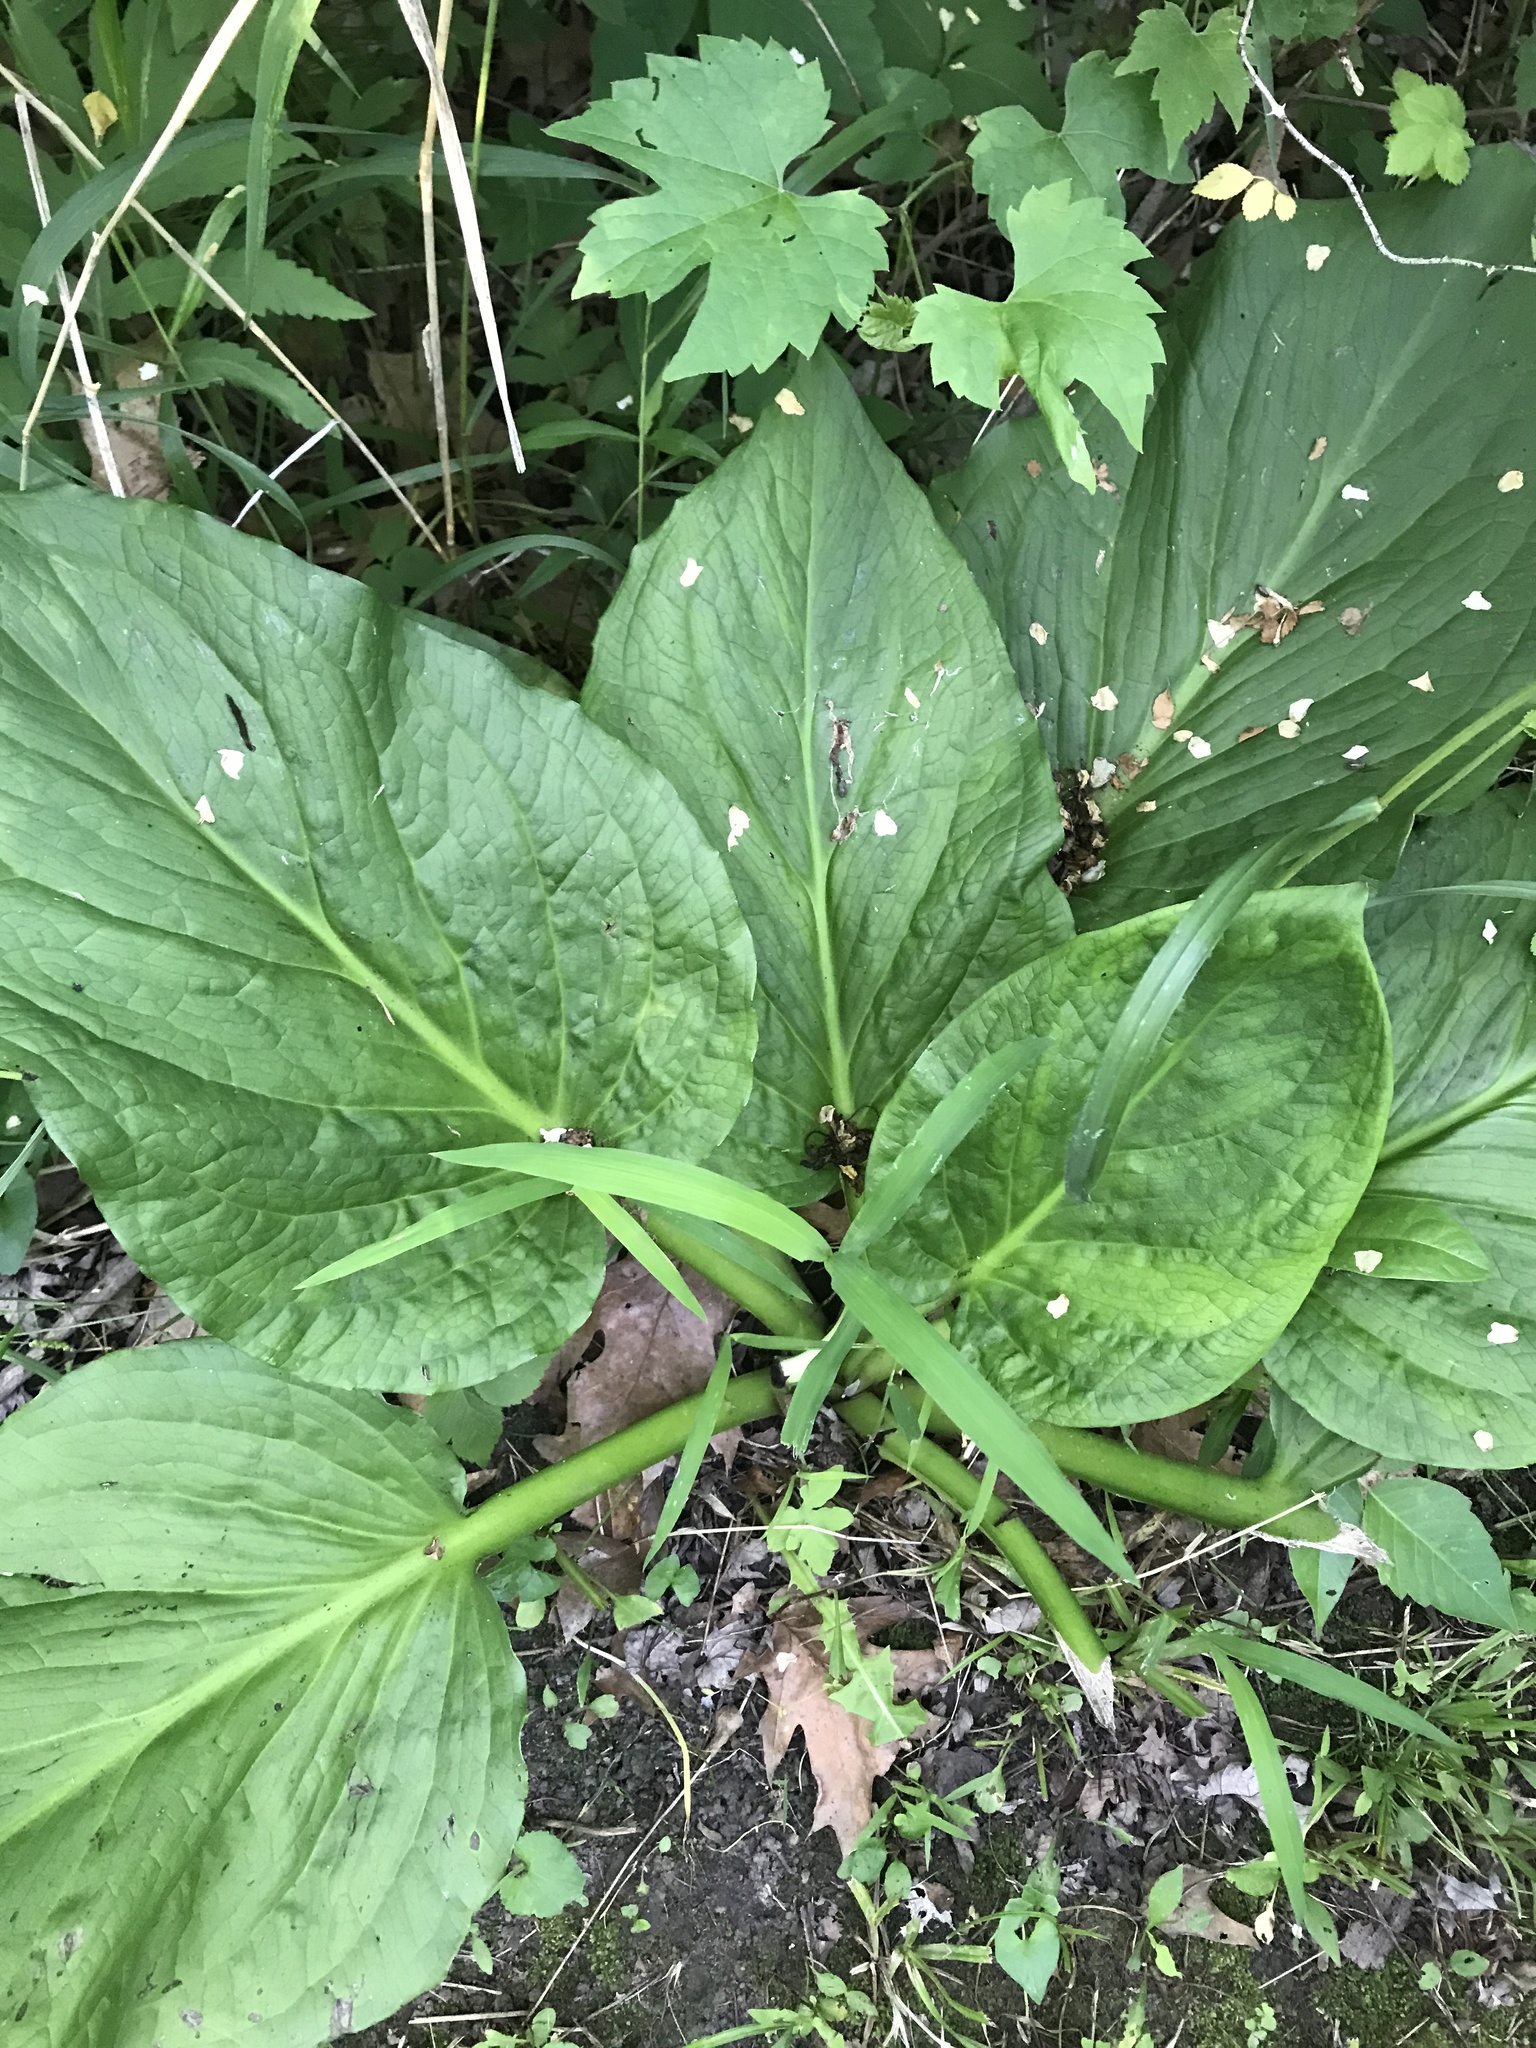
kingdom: Plantae
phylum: Tracheophyta
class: Liliopsida
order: Alismatales
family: Araceae
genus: Symplocarpus
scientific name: Symplocarpus foetidus
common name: Eastern skunk cabbage
